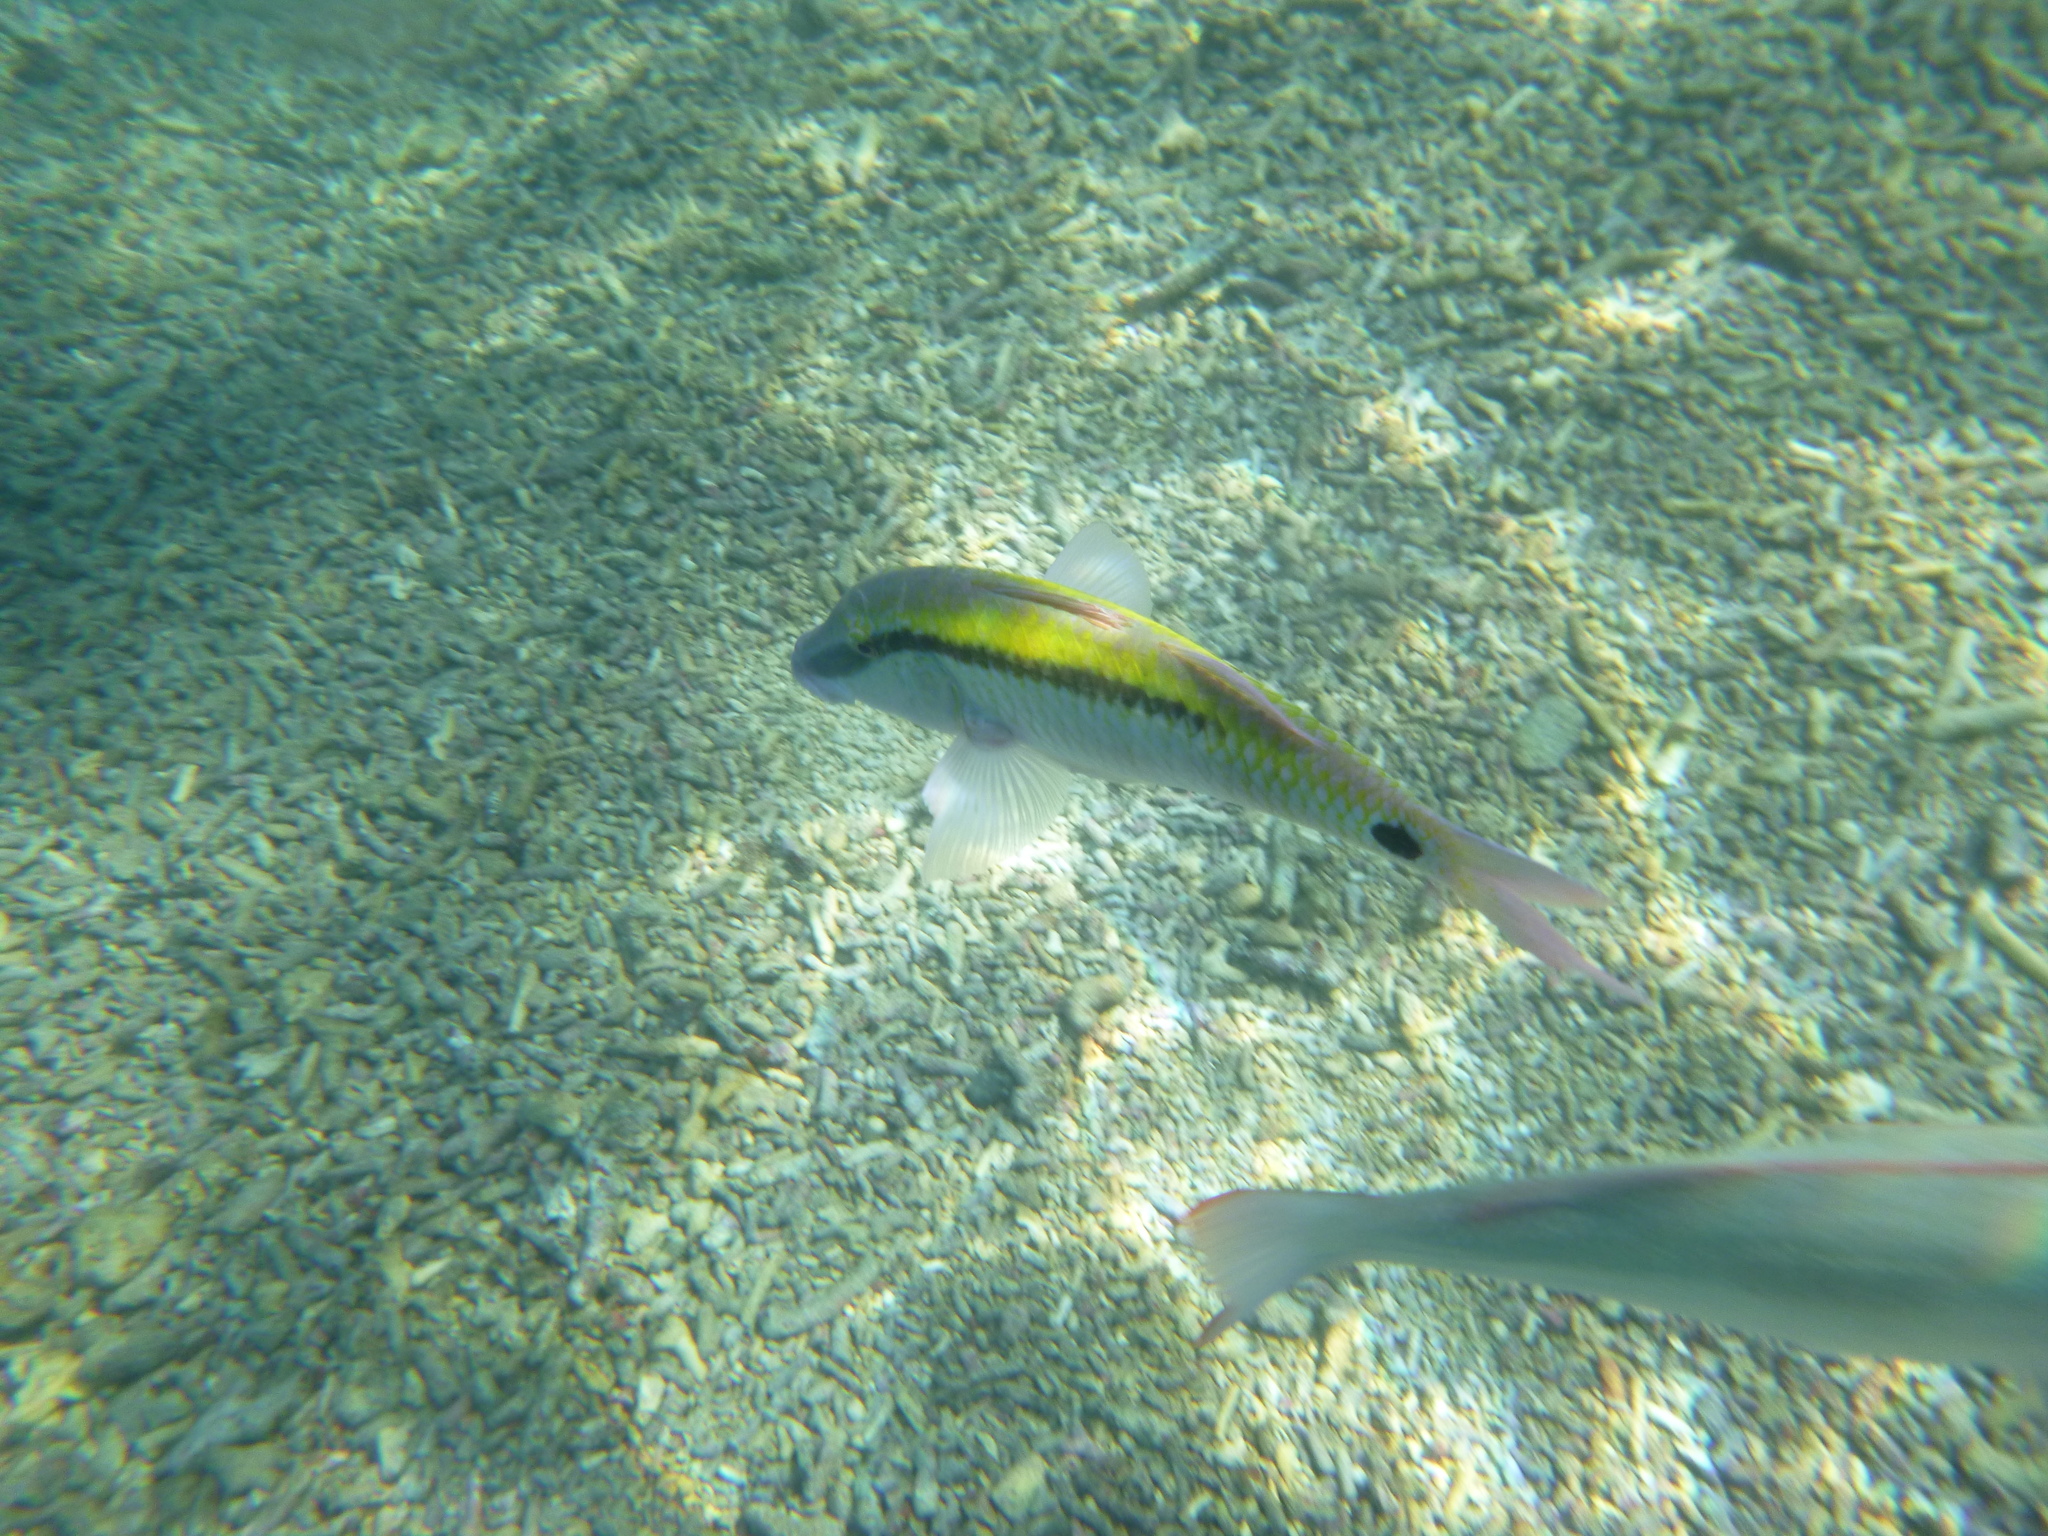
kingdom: Animalia
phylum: Chordata
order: Perciformes
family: Mullidae
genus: Parupeneus
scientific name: Parupeneus barberinus
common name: Dash-and-dot goatfish
